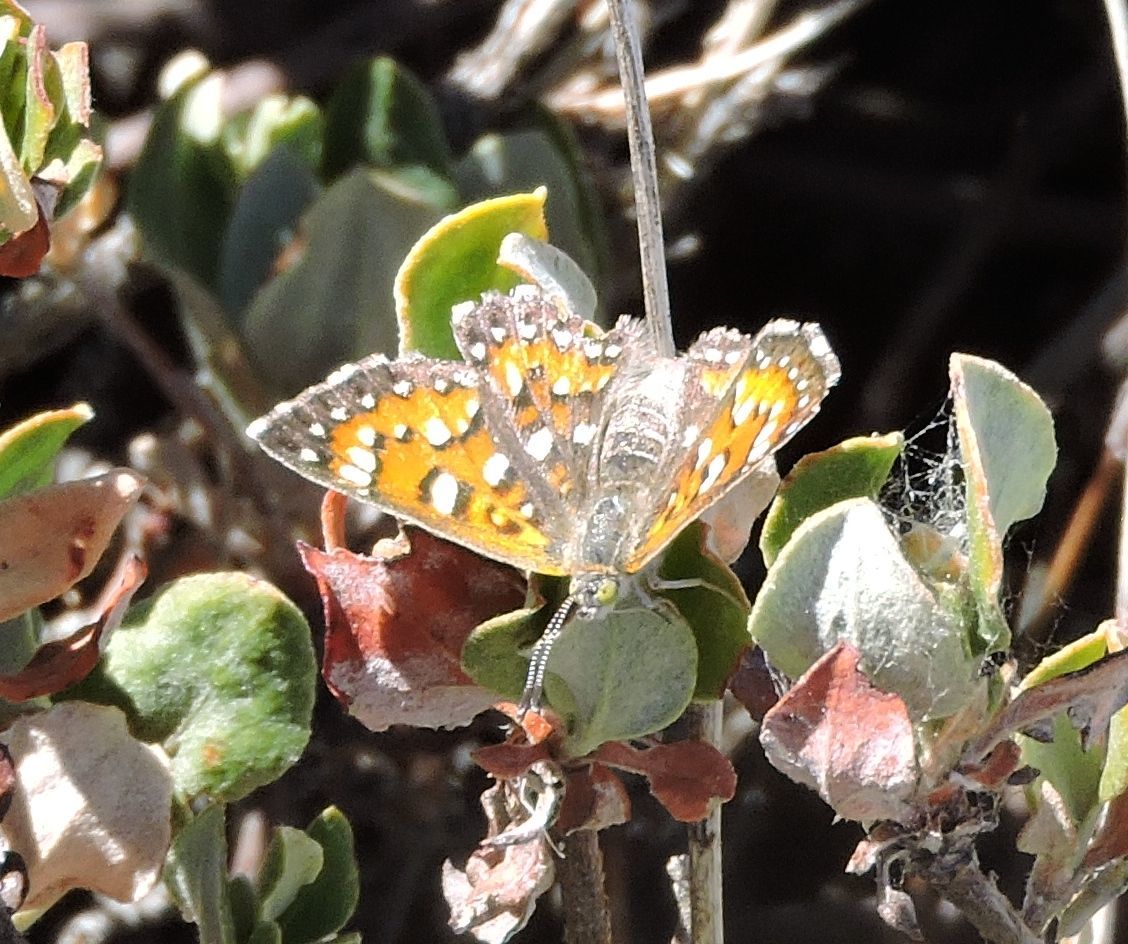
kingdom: Animalia
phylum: Arthropoda
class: Insecta
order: Lepidoptera
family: Riodinidae
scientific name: Riodinidae
